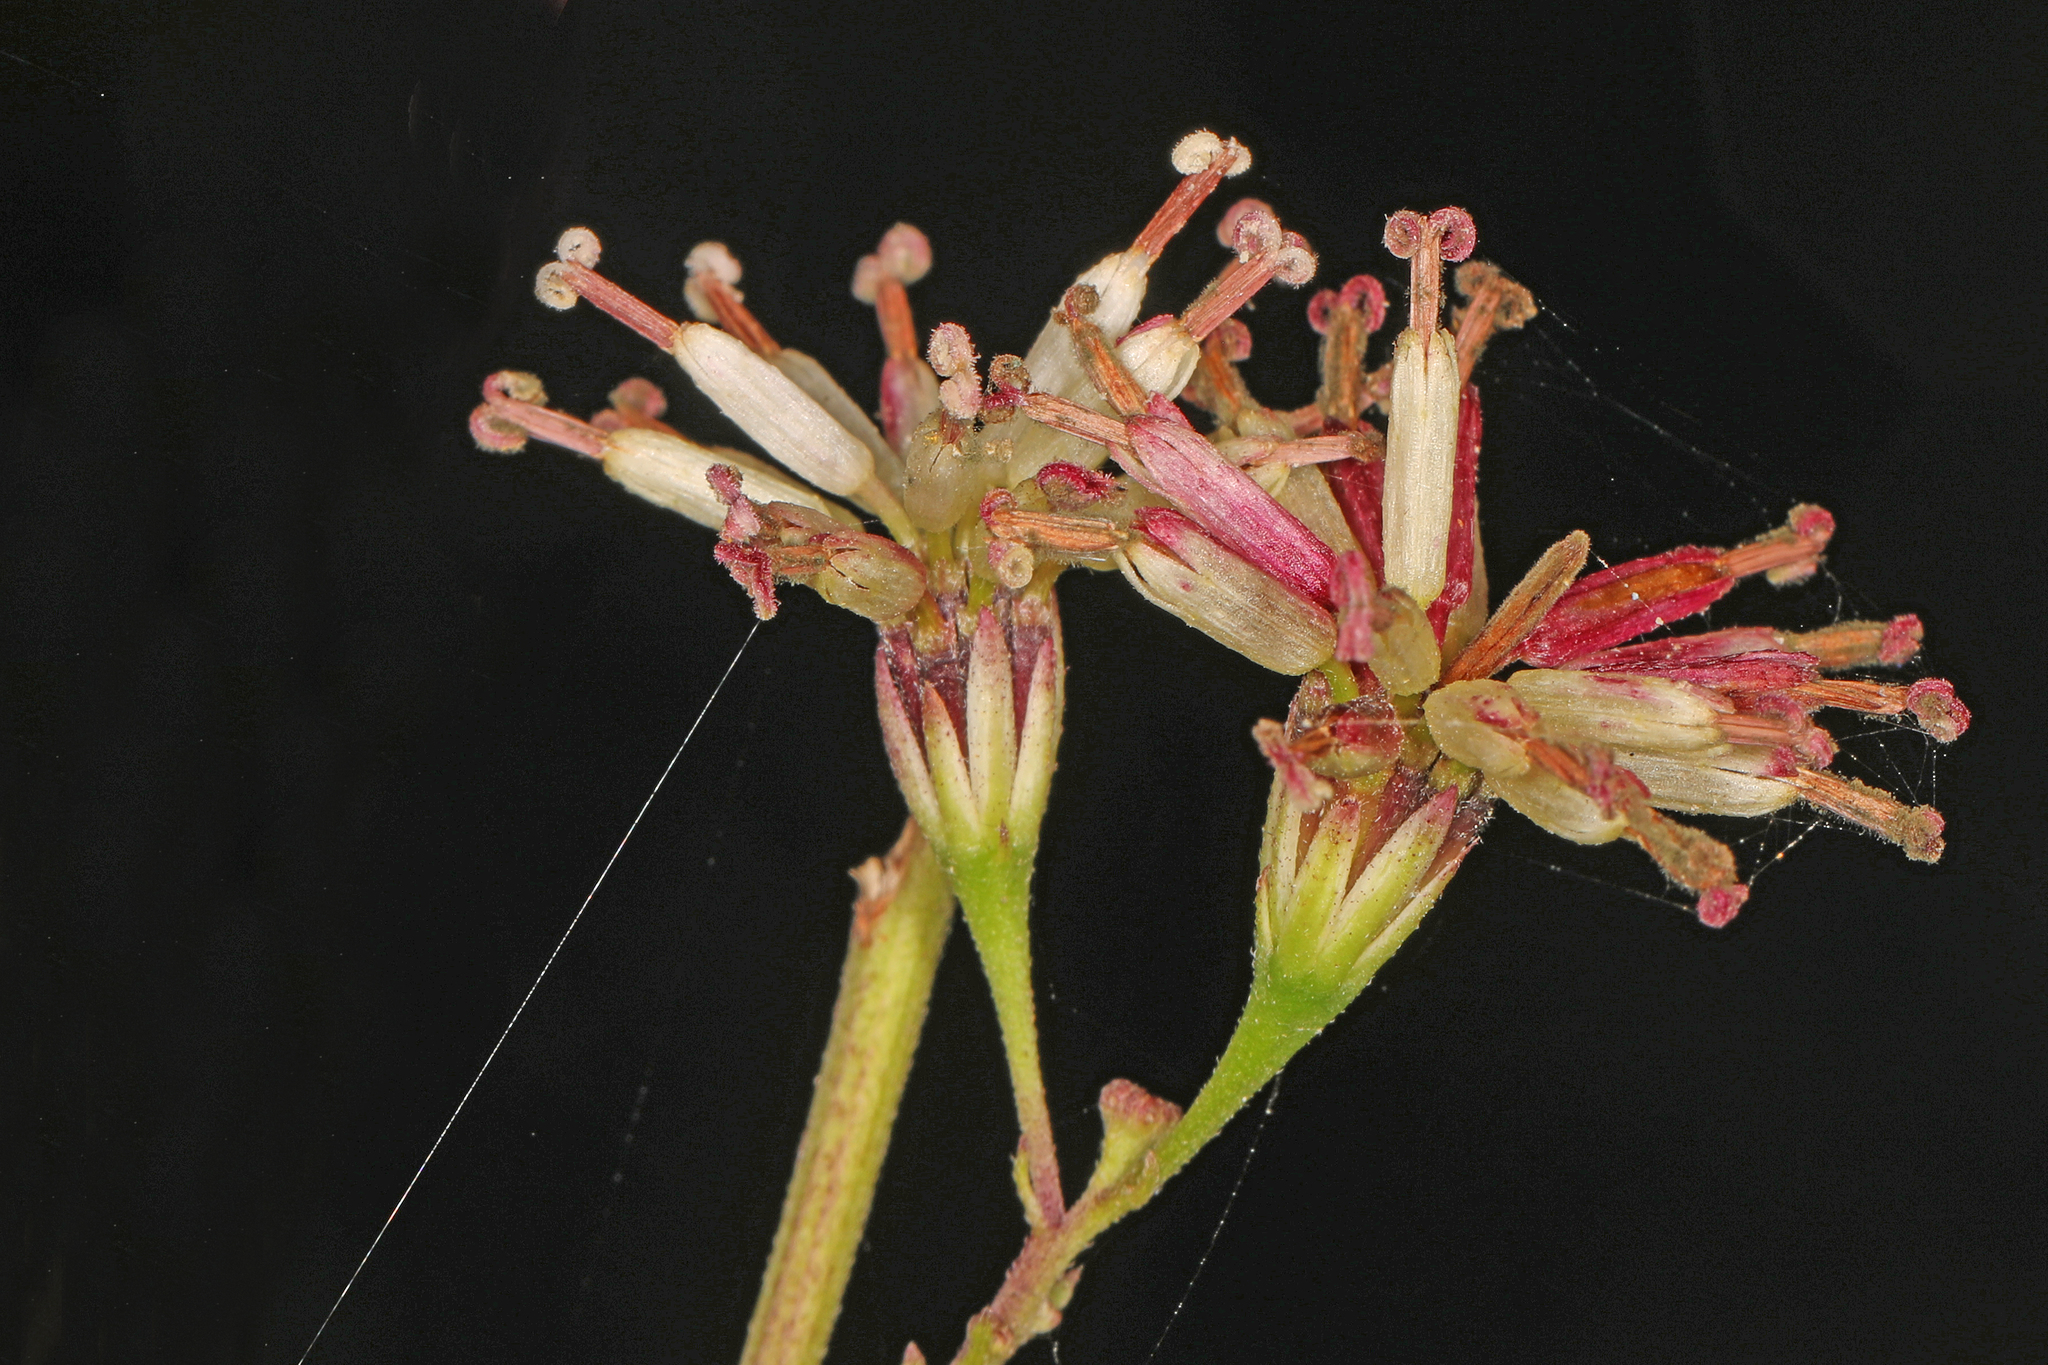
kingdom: Plantae
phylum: Tracheophyta
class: Magnoliopsida
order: Asterales
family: Asteraceae
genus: Palafoxia
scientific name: Palafoxia feayi
